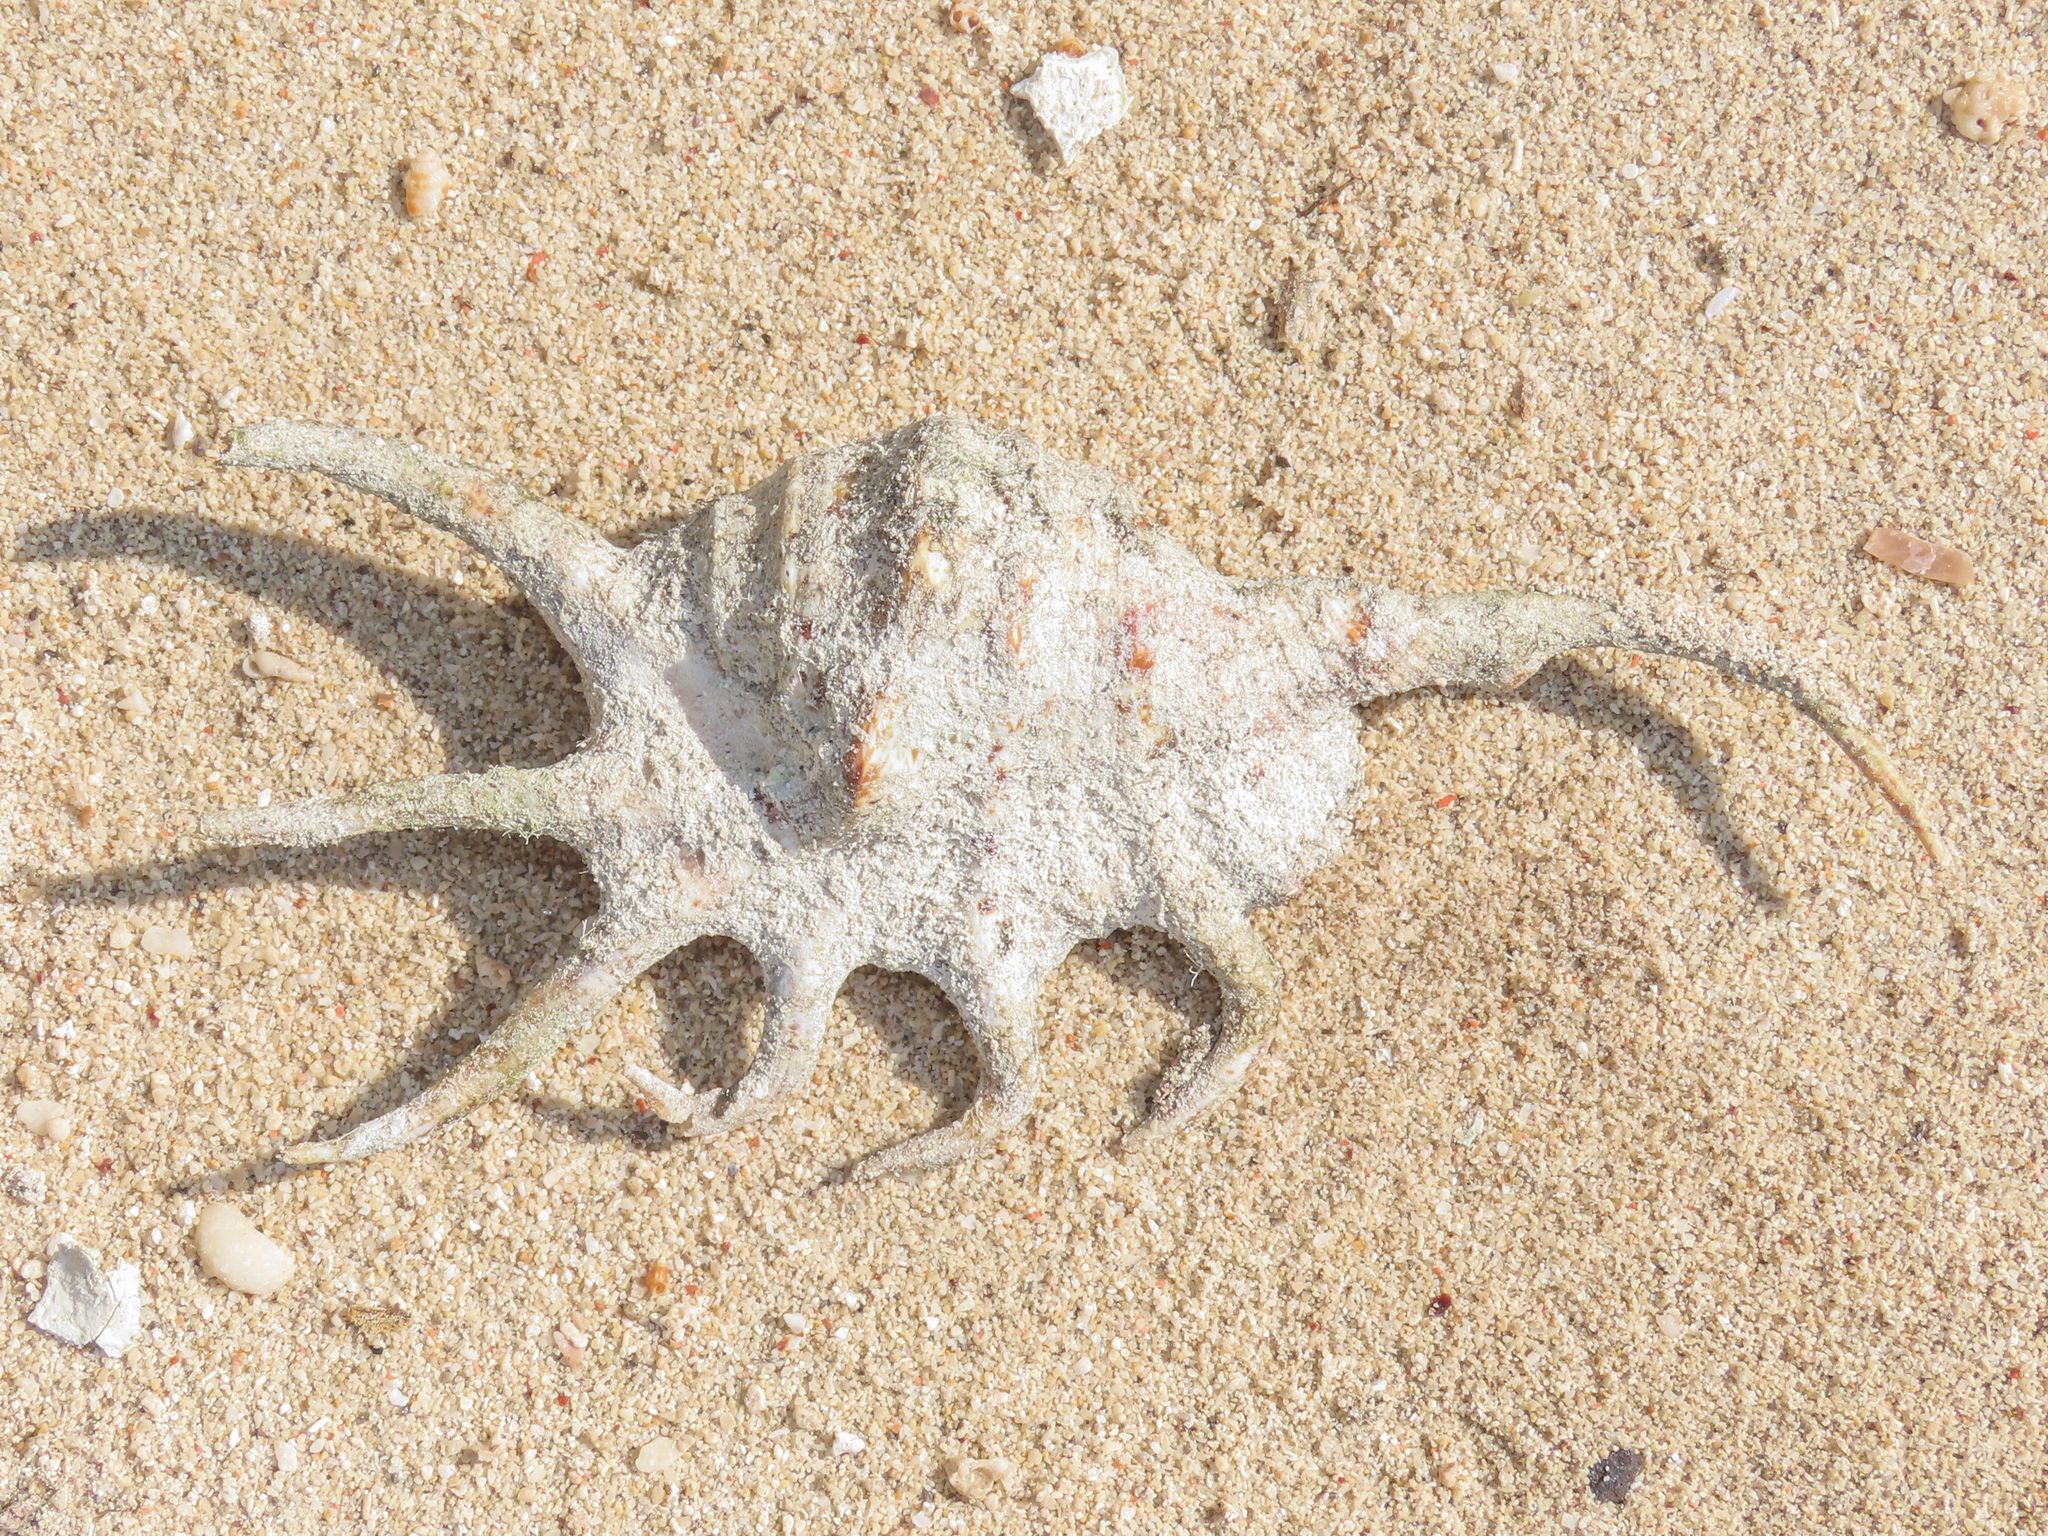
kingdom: Animalia
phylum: Mollusca
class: Gastropoda
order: Littorinimorpha
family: Strombidae
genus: Lambis
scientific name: Lambis crocata
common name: Orange spider conch
